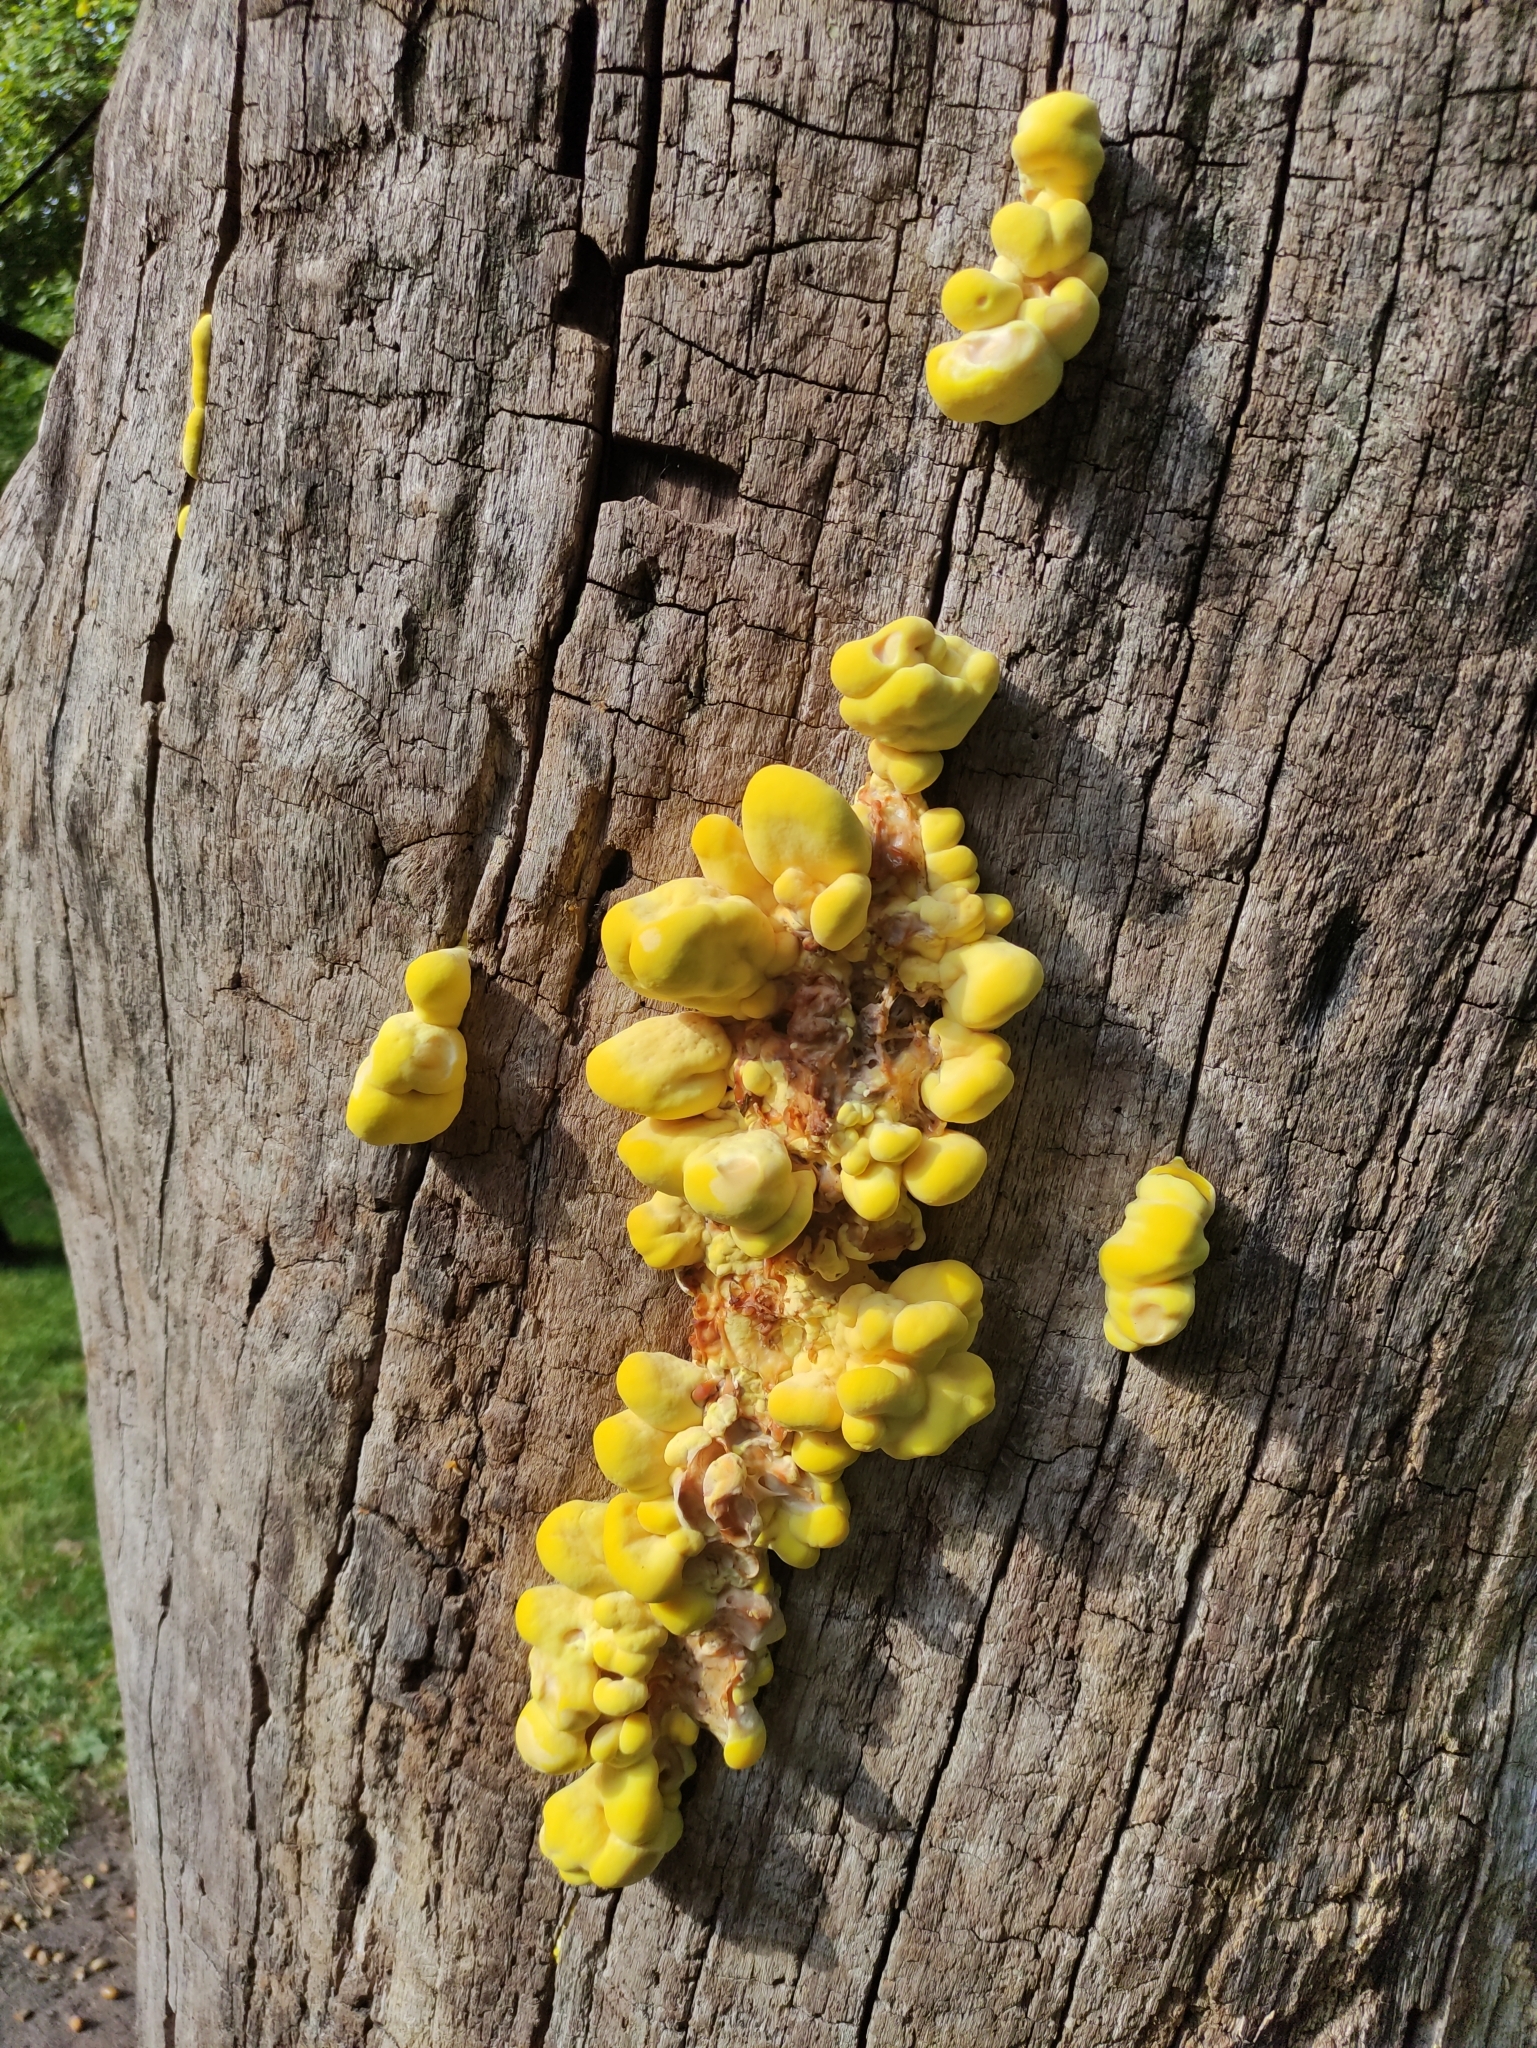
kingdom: Fungi
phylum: Basidiomycota
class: Agaricomycetes
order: Polyporales
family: Laetiporaceae
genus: Laetiporus
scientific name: Laetiporus sulphureus
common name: Chicken of the woods
